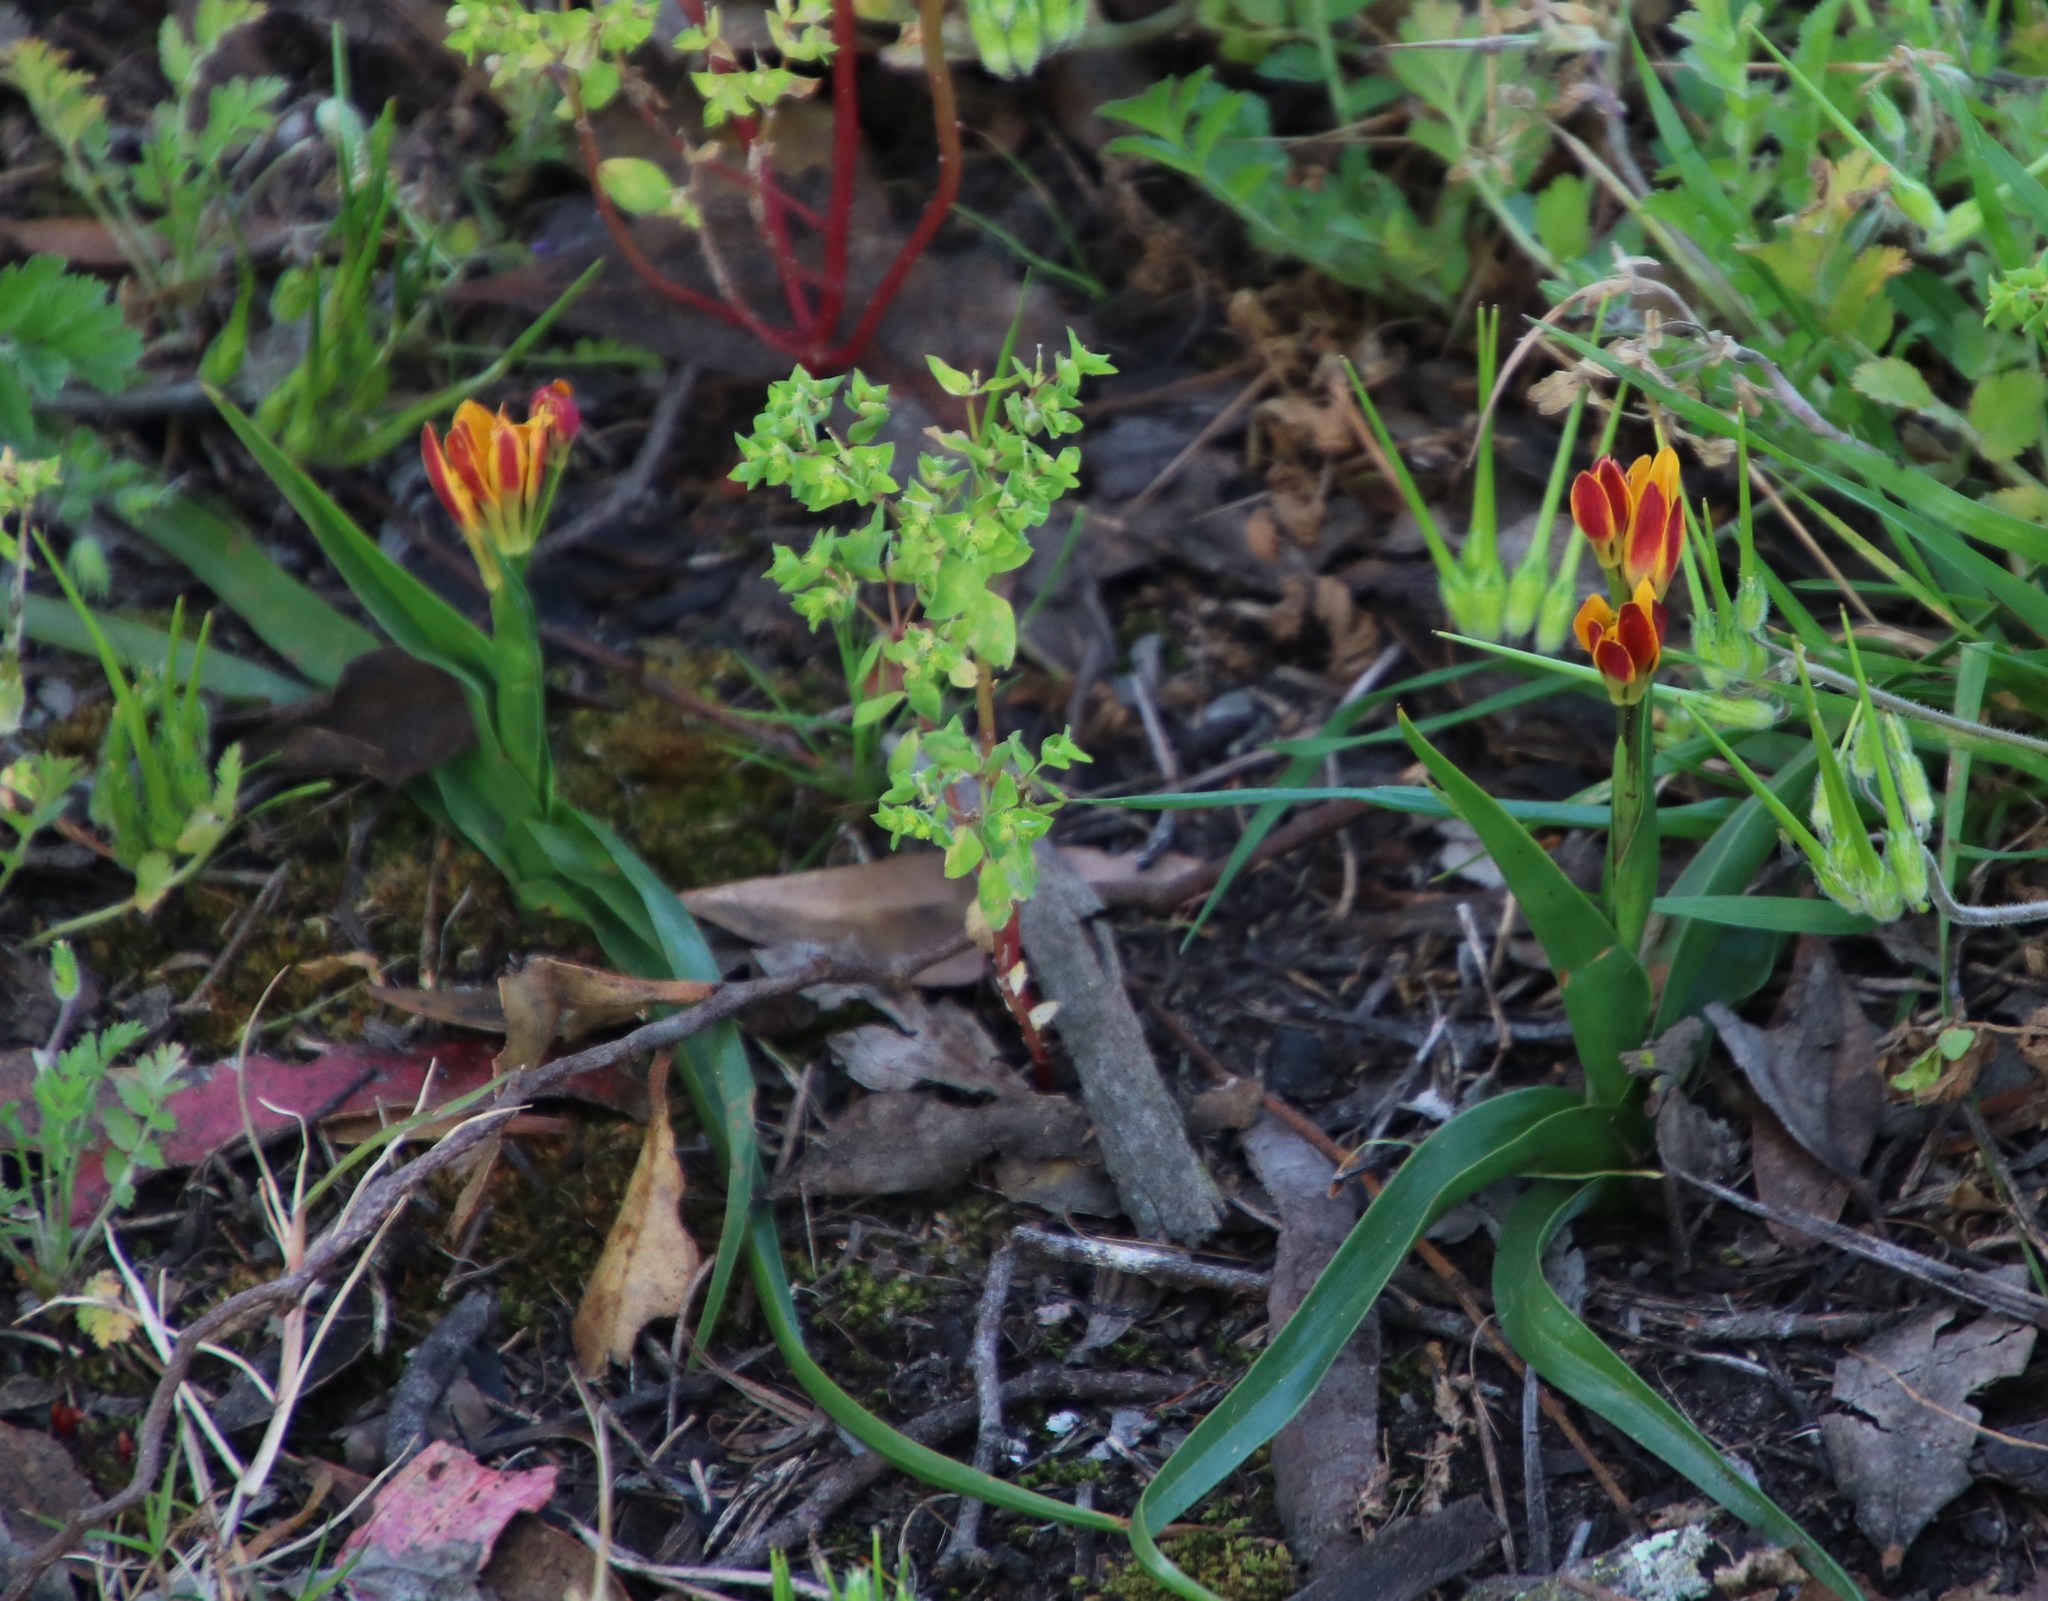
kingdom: Plantae
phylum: Tracheophyta
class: Liliopsida
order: Liliales
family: Colchicaceae
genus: Baeometra
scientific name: Baeometra uniflora
